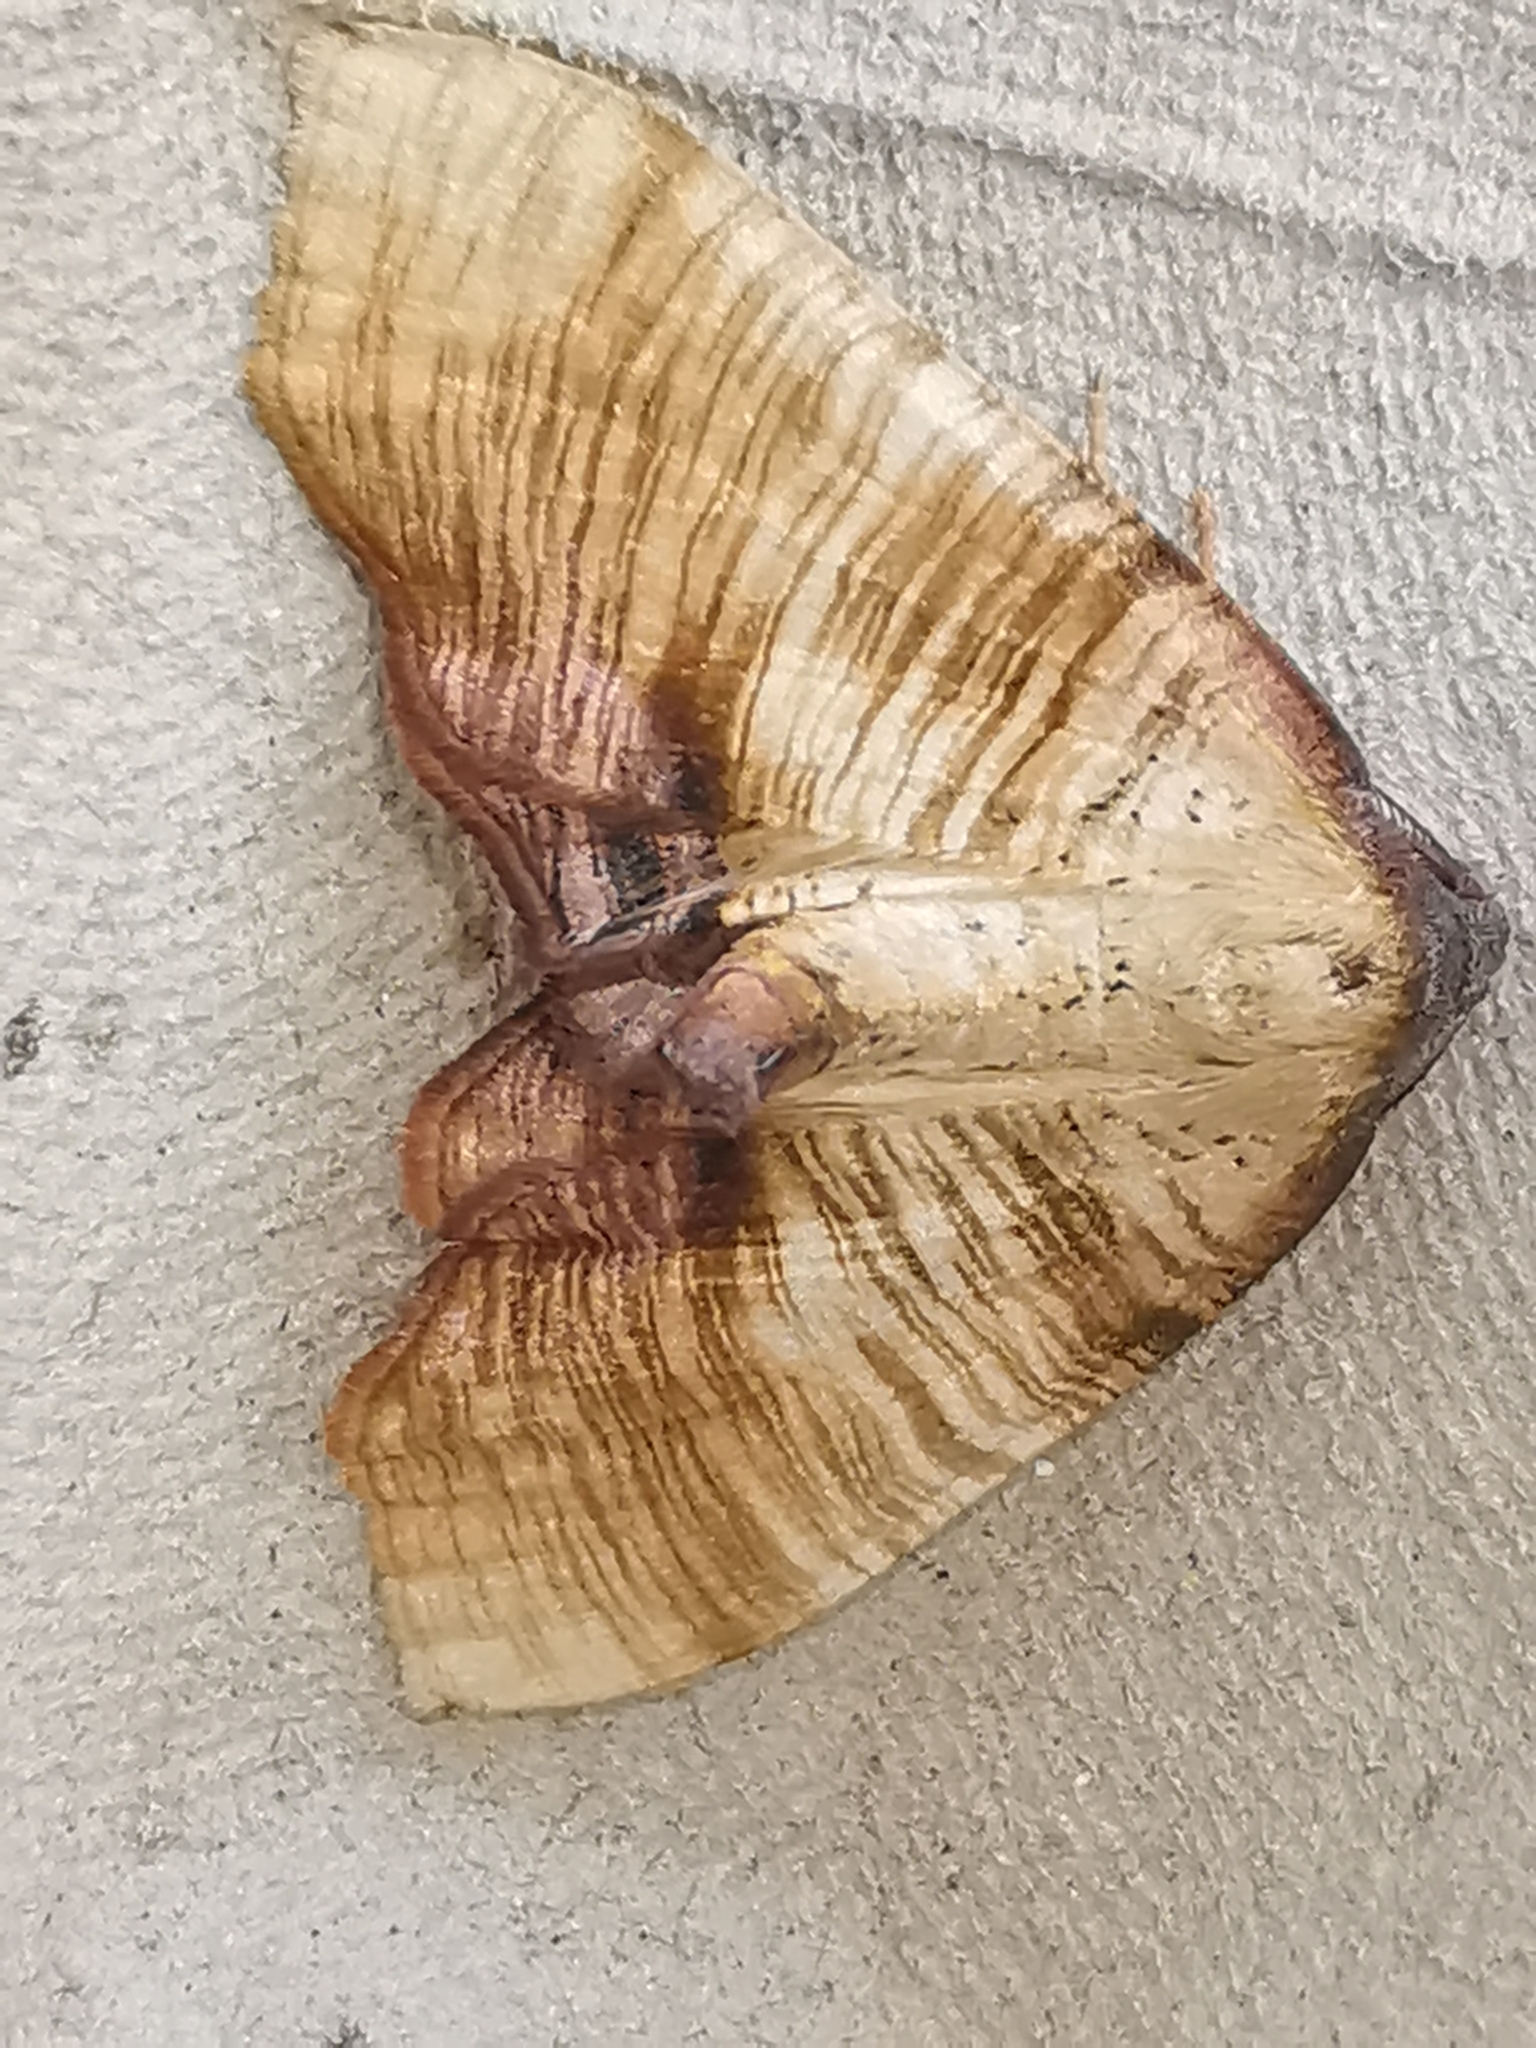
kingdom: Animalia
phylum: Arthropoda
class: Insecta
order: Lepidoptera
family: Geometridae
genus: Plagodis
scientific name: Plagodis dolabraria
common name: Scorched wing
